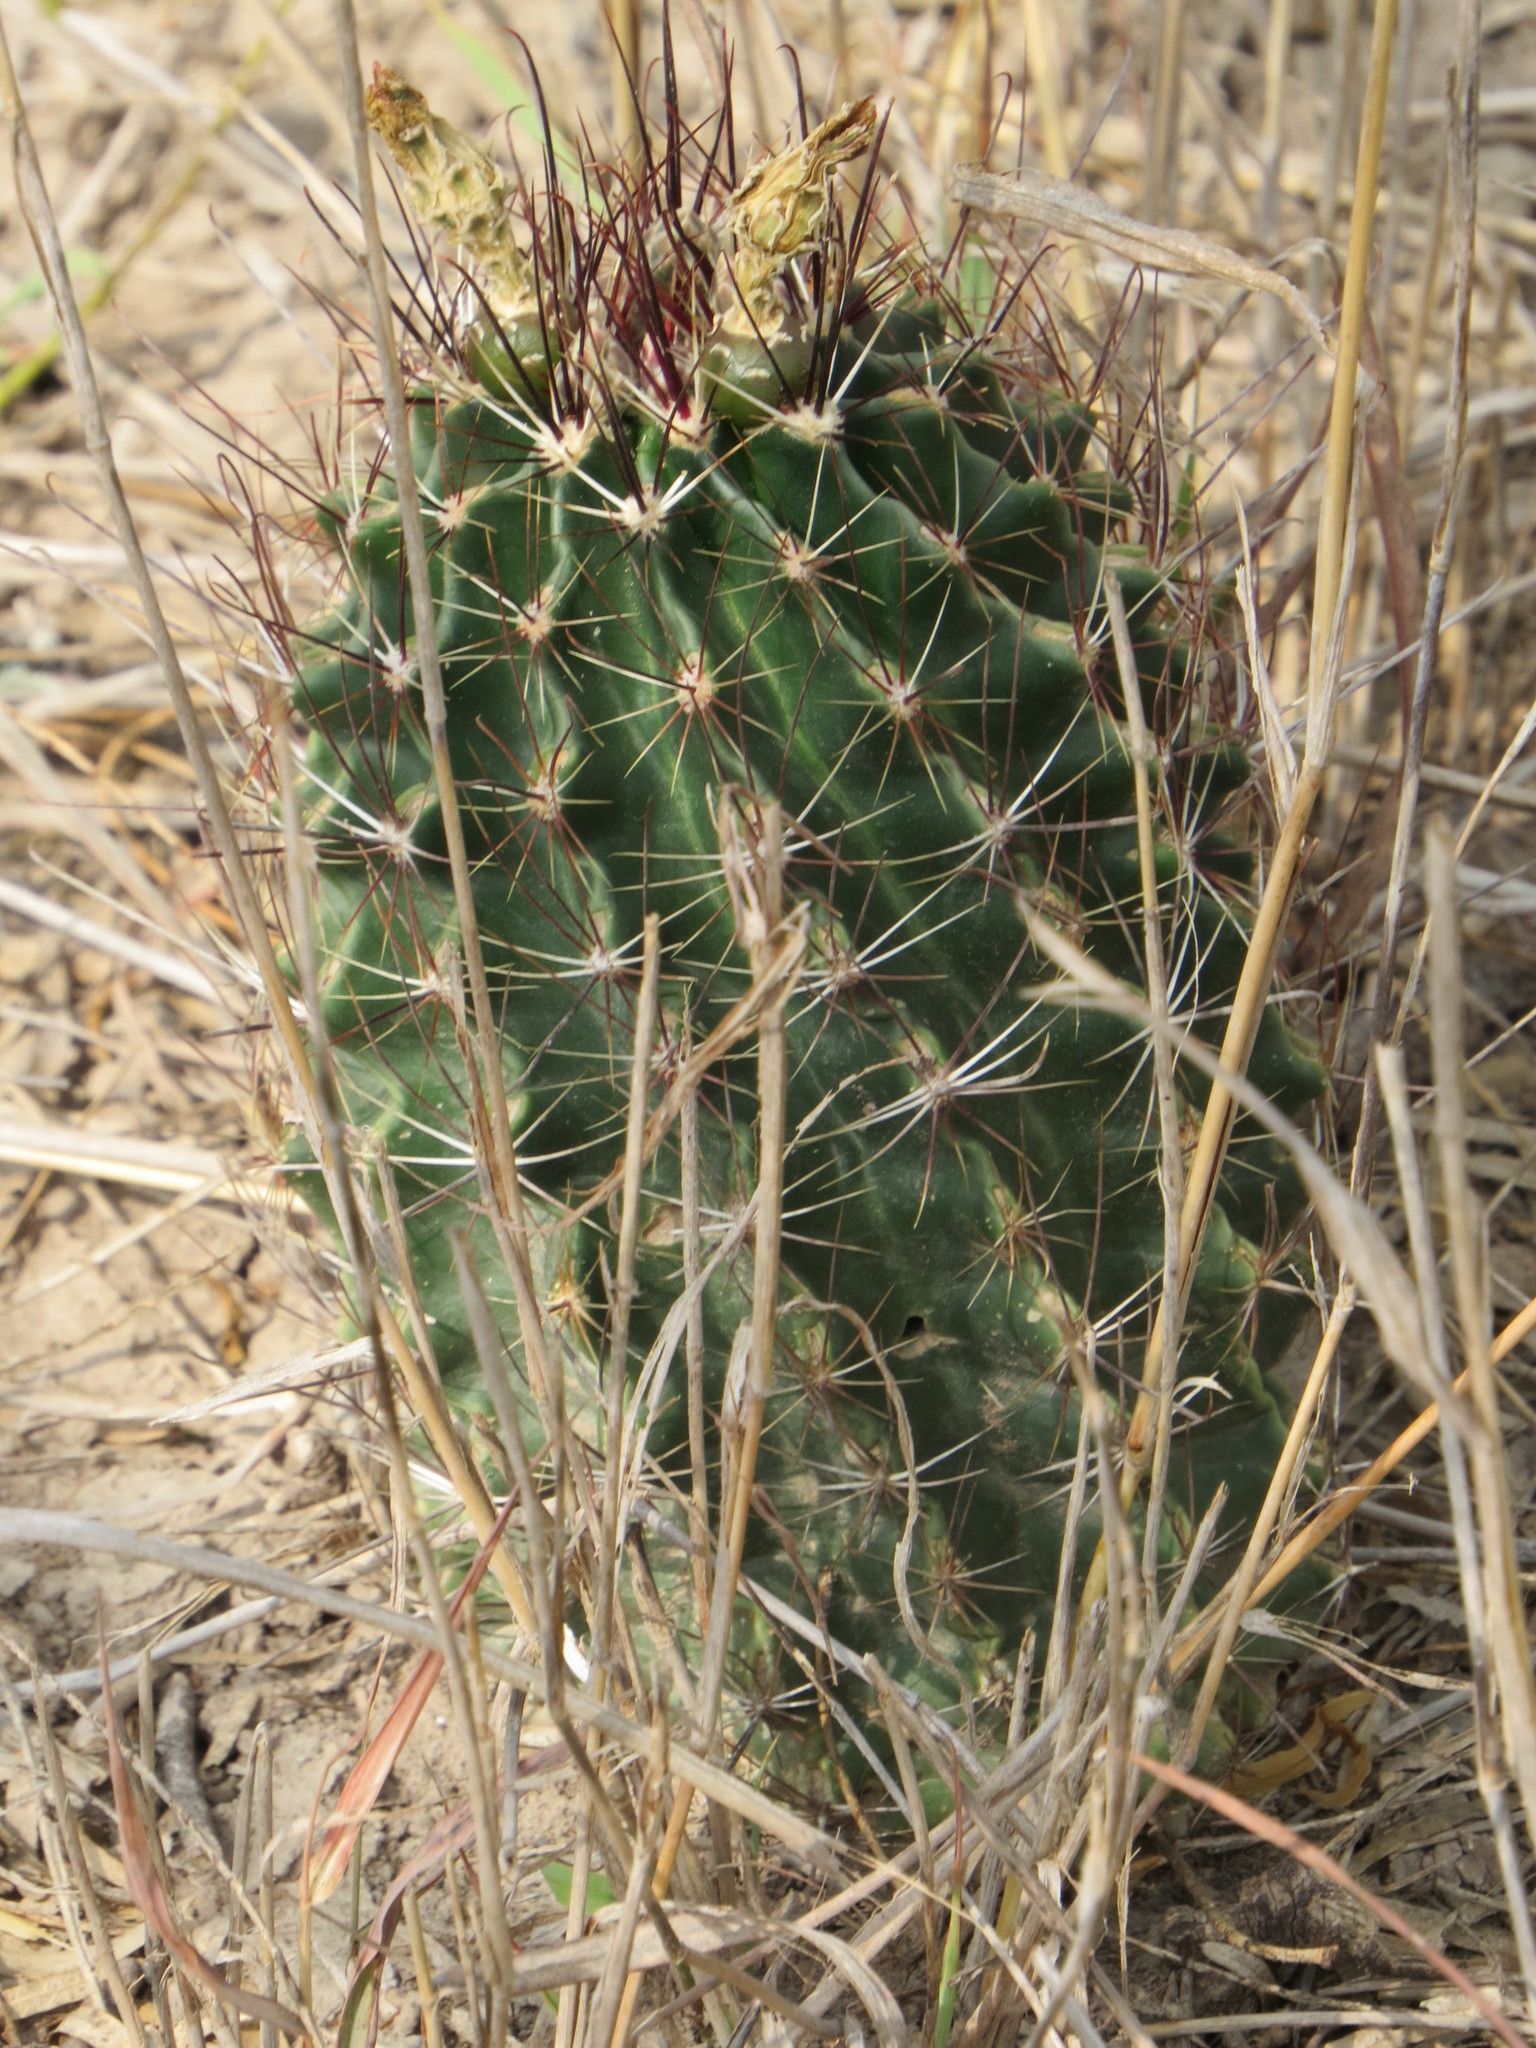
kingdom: Plantae
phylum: Tracheophyta
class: Magnoliopsida
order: Caryophyllales
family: Cactaceae
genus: Thelocactus
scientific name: Thelocactus setispinus
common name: Miniature barrel cactus
